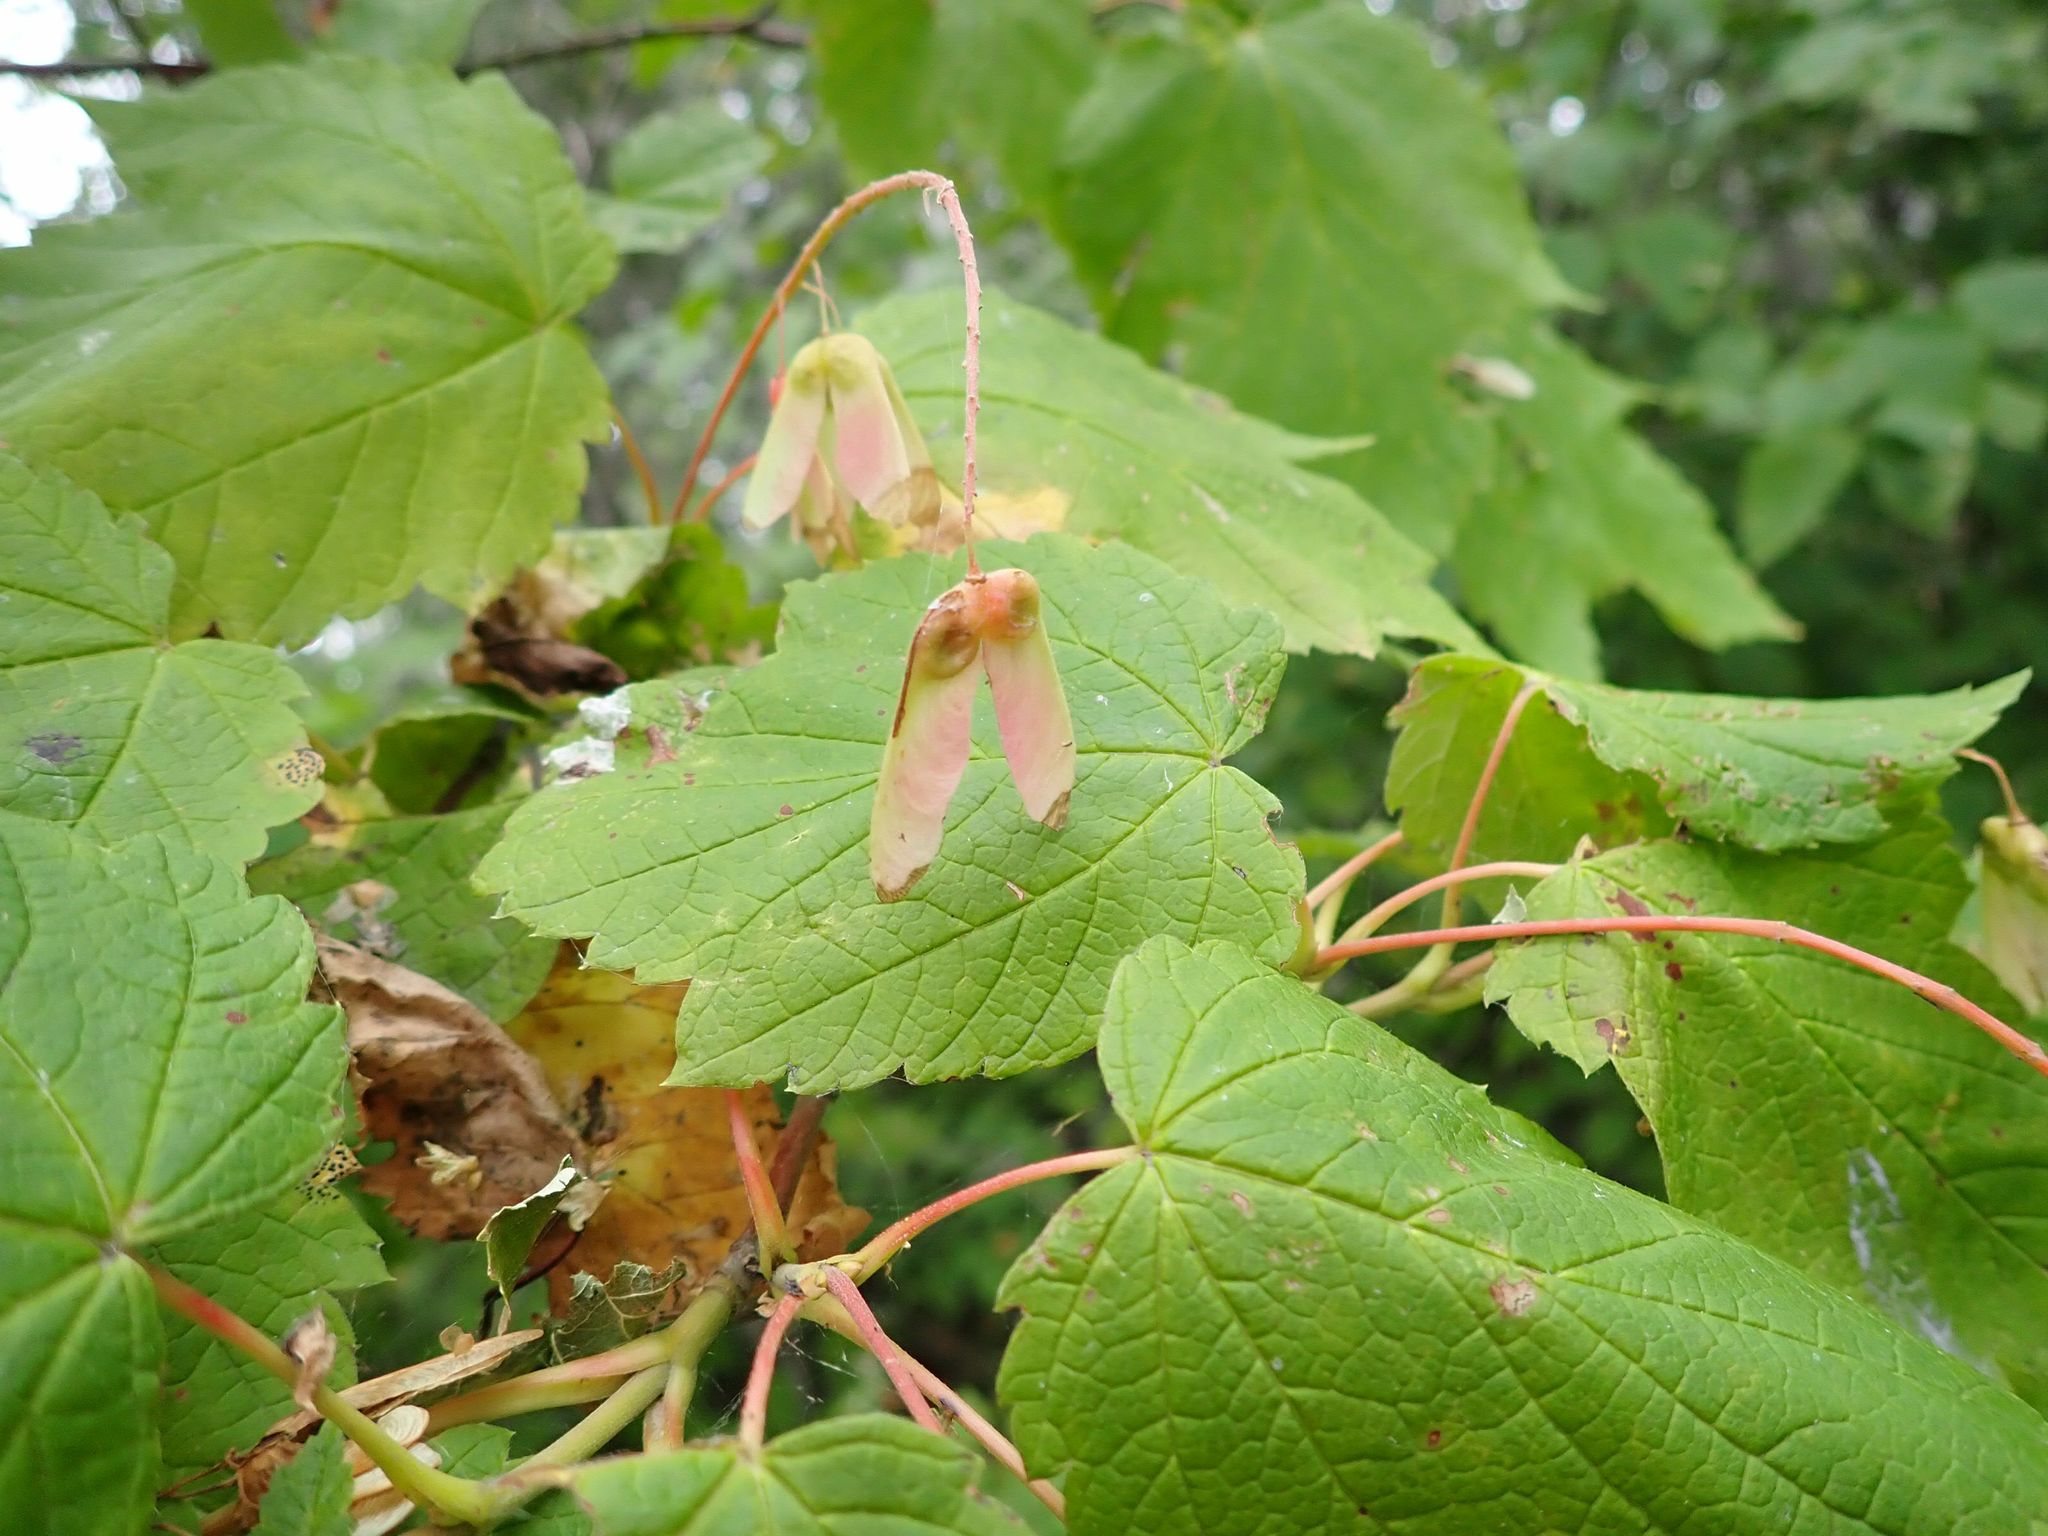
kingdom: Plantae
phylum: Tracheophyta
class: Magnoliopsida
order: Sapindales
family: Sapindaceae
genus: Acer
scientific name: Acer spicatum
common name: Mountain maple
